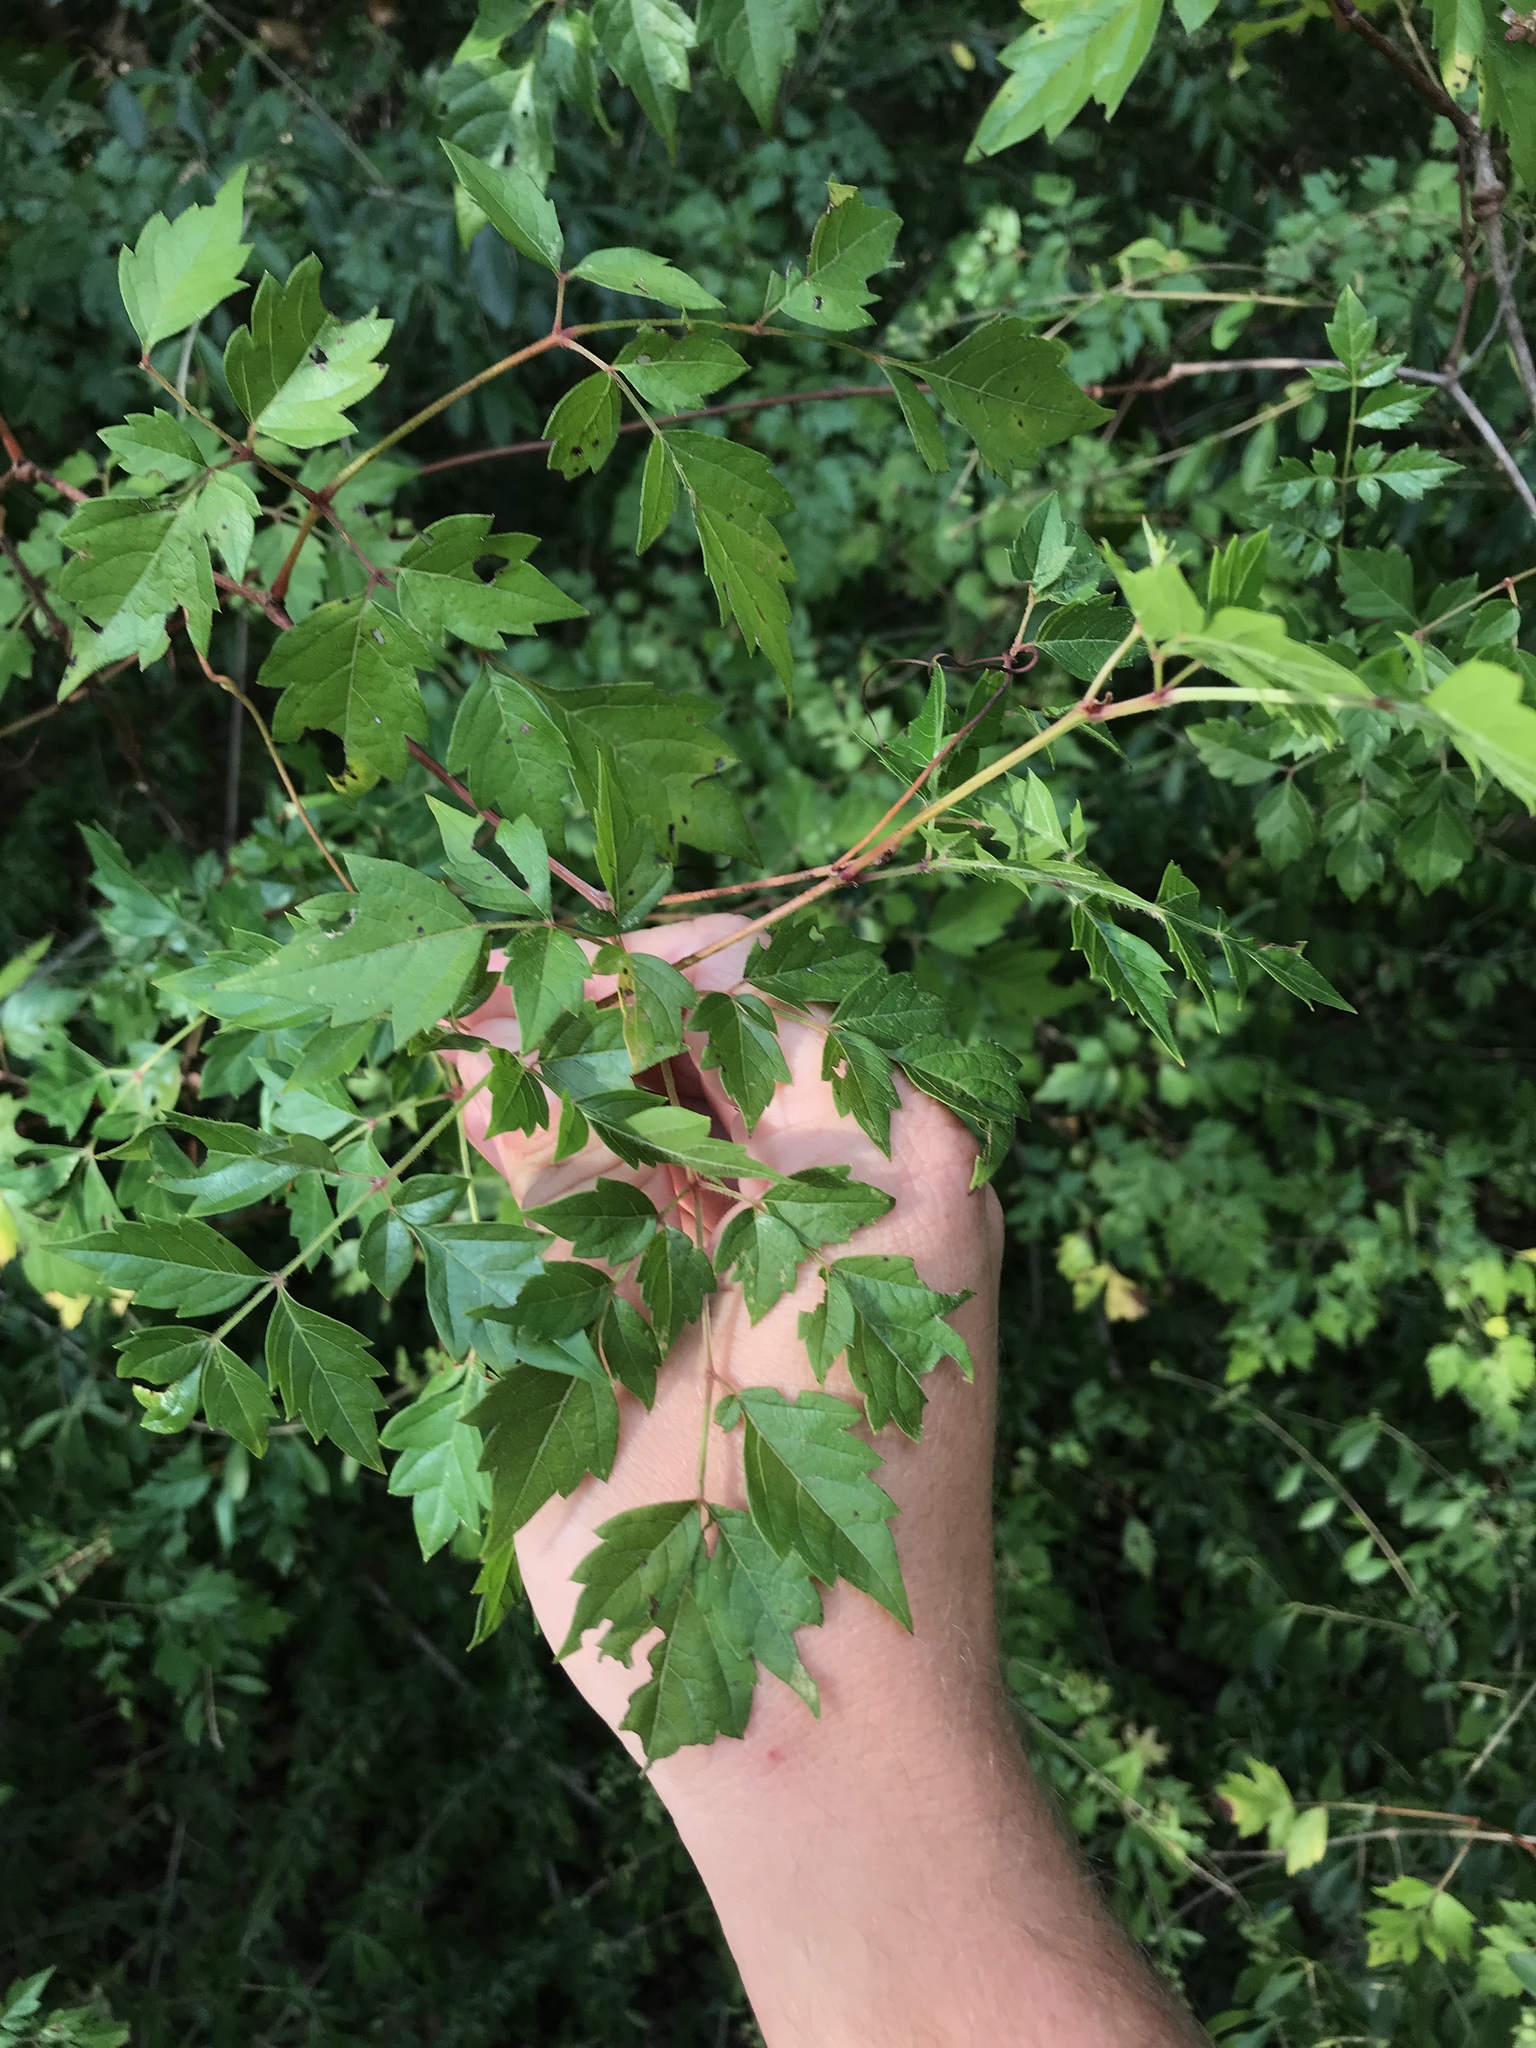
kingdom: Plantae
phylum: Tracheophyta
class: Magnoliopsida
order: Vitales
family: Vitaceae
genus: Nekemias
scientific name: Nekemias arborea
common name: Peppervine
